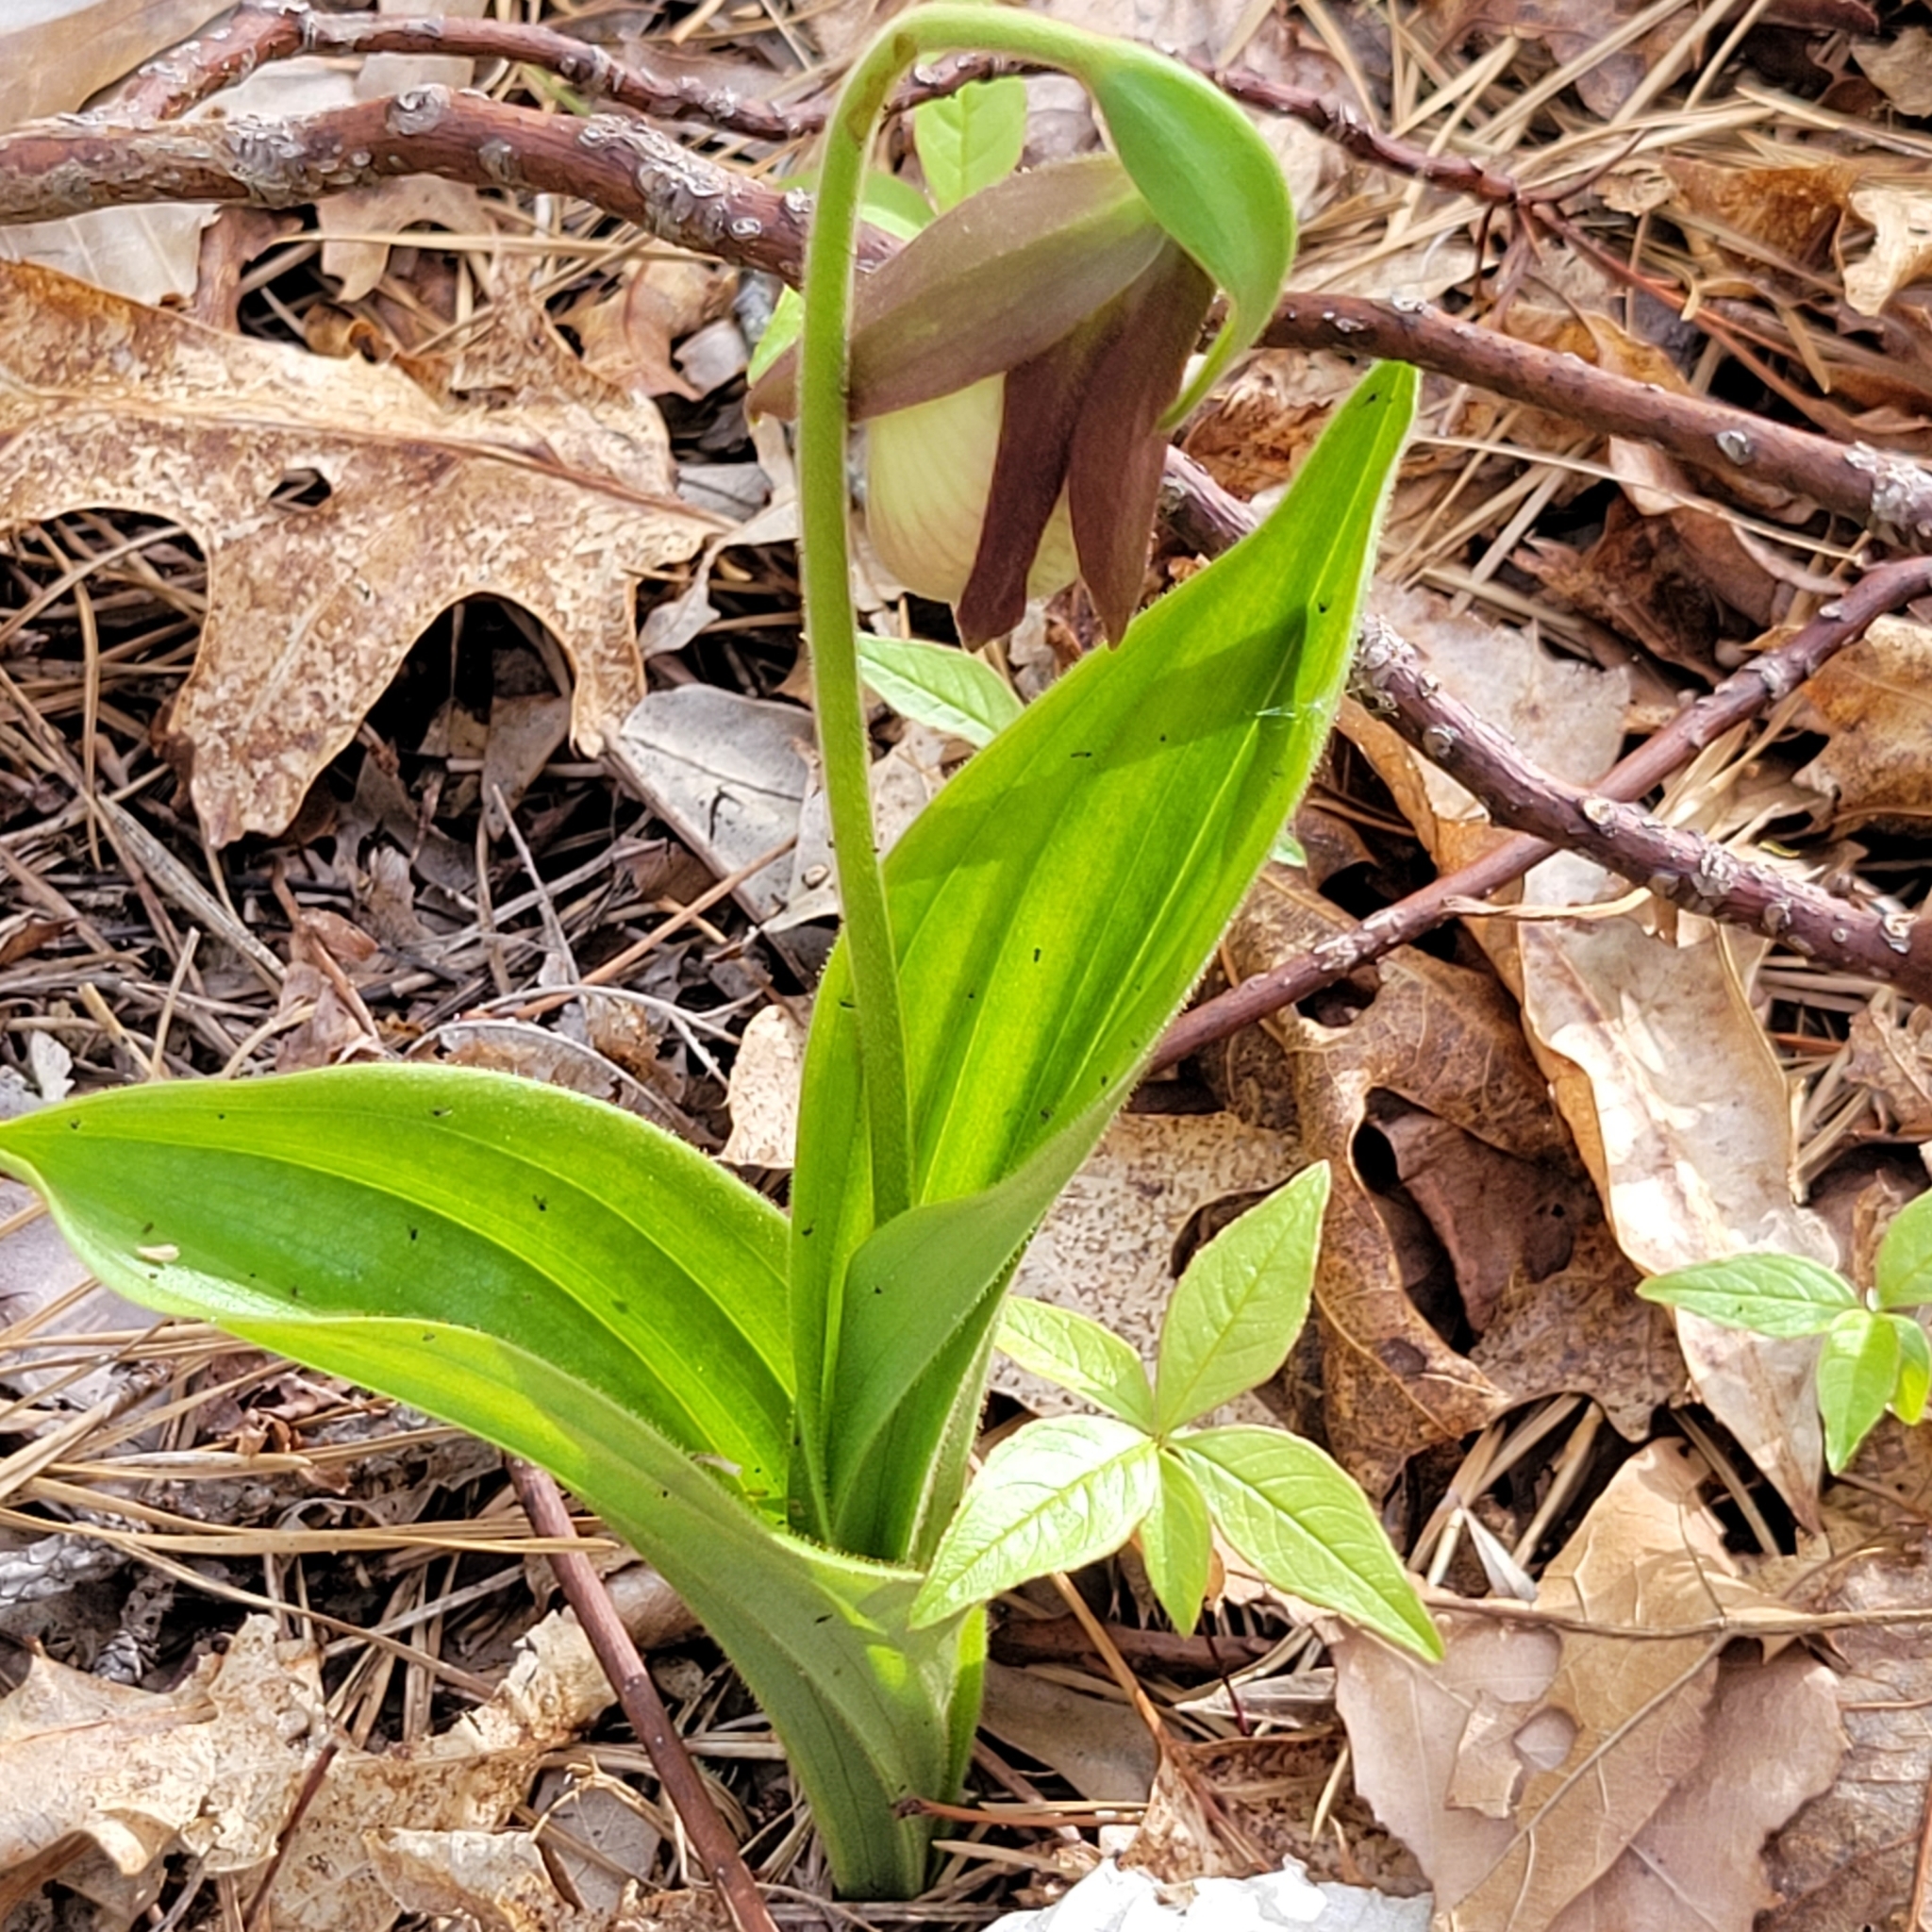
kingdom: Plantae
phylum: Tracheophyta
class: Liliopsida
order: Asparagales
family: Orchidaceae
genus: Cypripedium
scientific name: Cypripedium acaule
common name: Pink lady's-slipper
